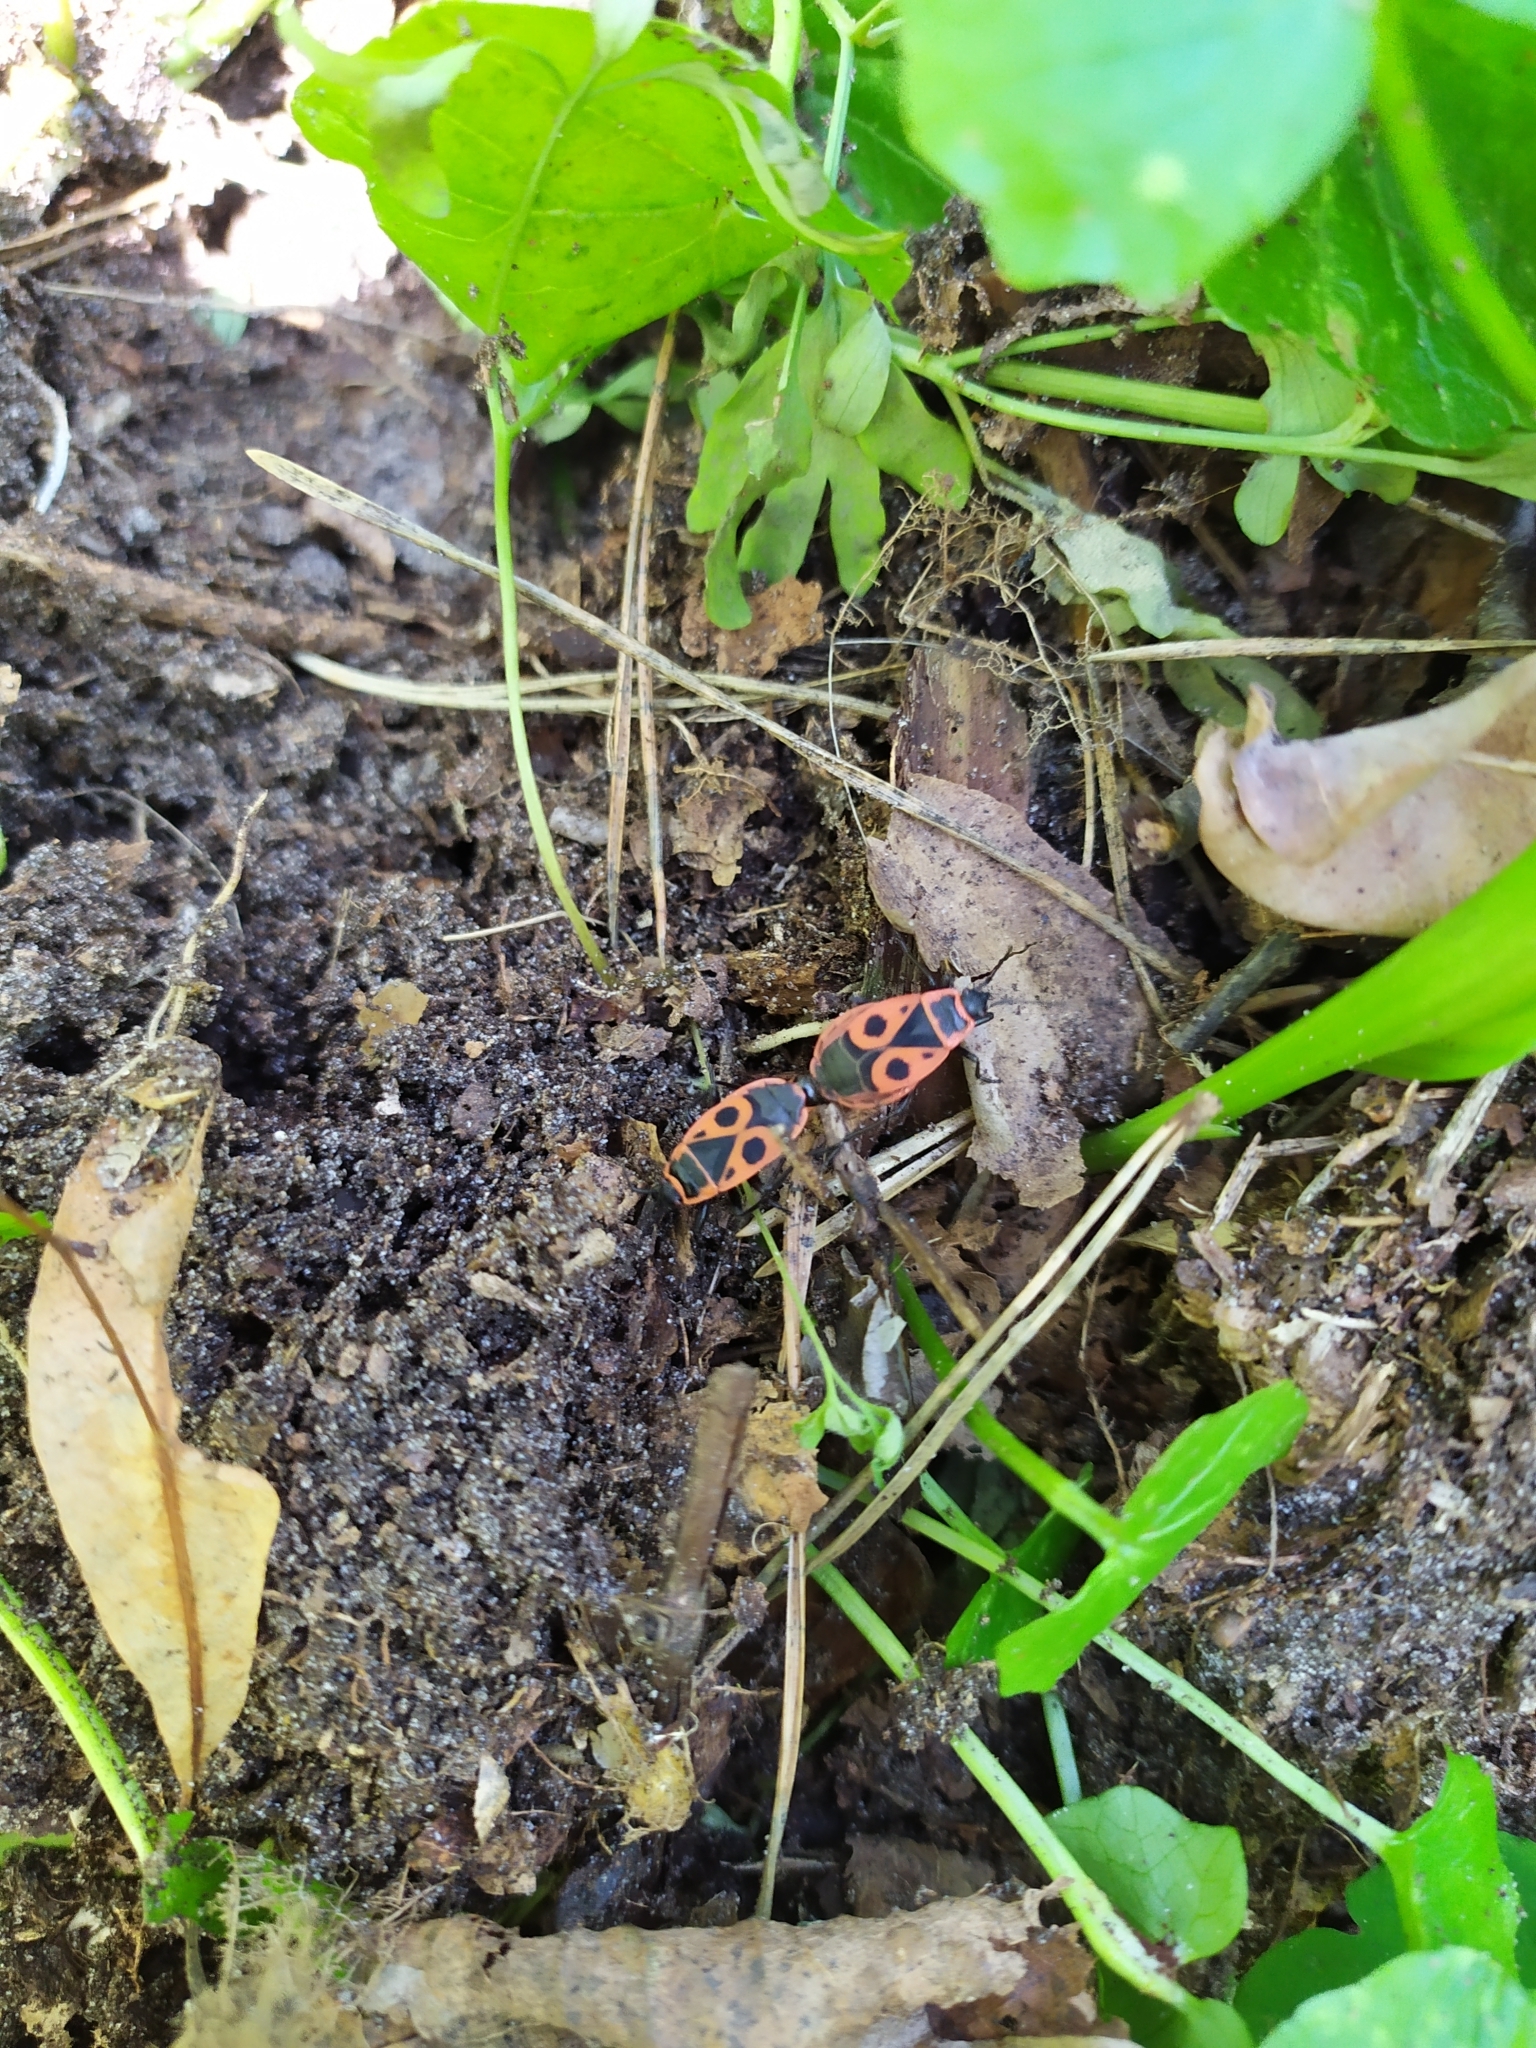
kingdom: Animalia
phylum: Arthropoda
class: Insecta
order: Hemiptera
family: Pyrrhocoridae
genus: Pyrrhocoris
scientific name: Pyrrhocoris apterus
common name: Firebug
